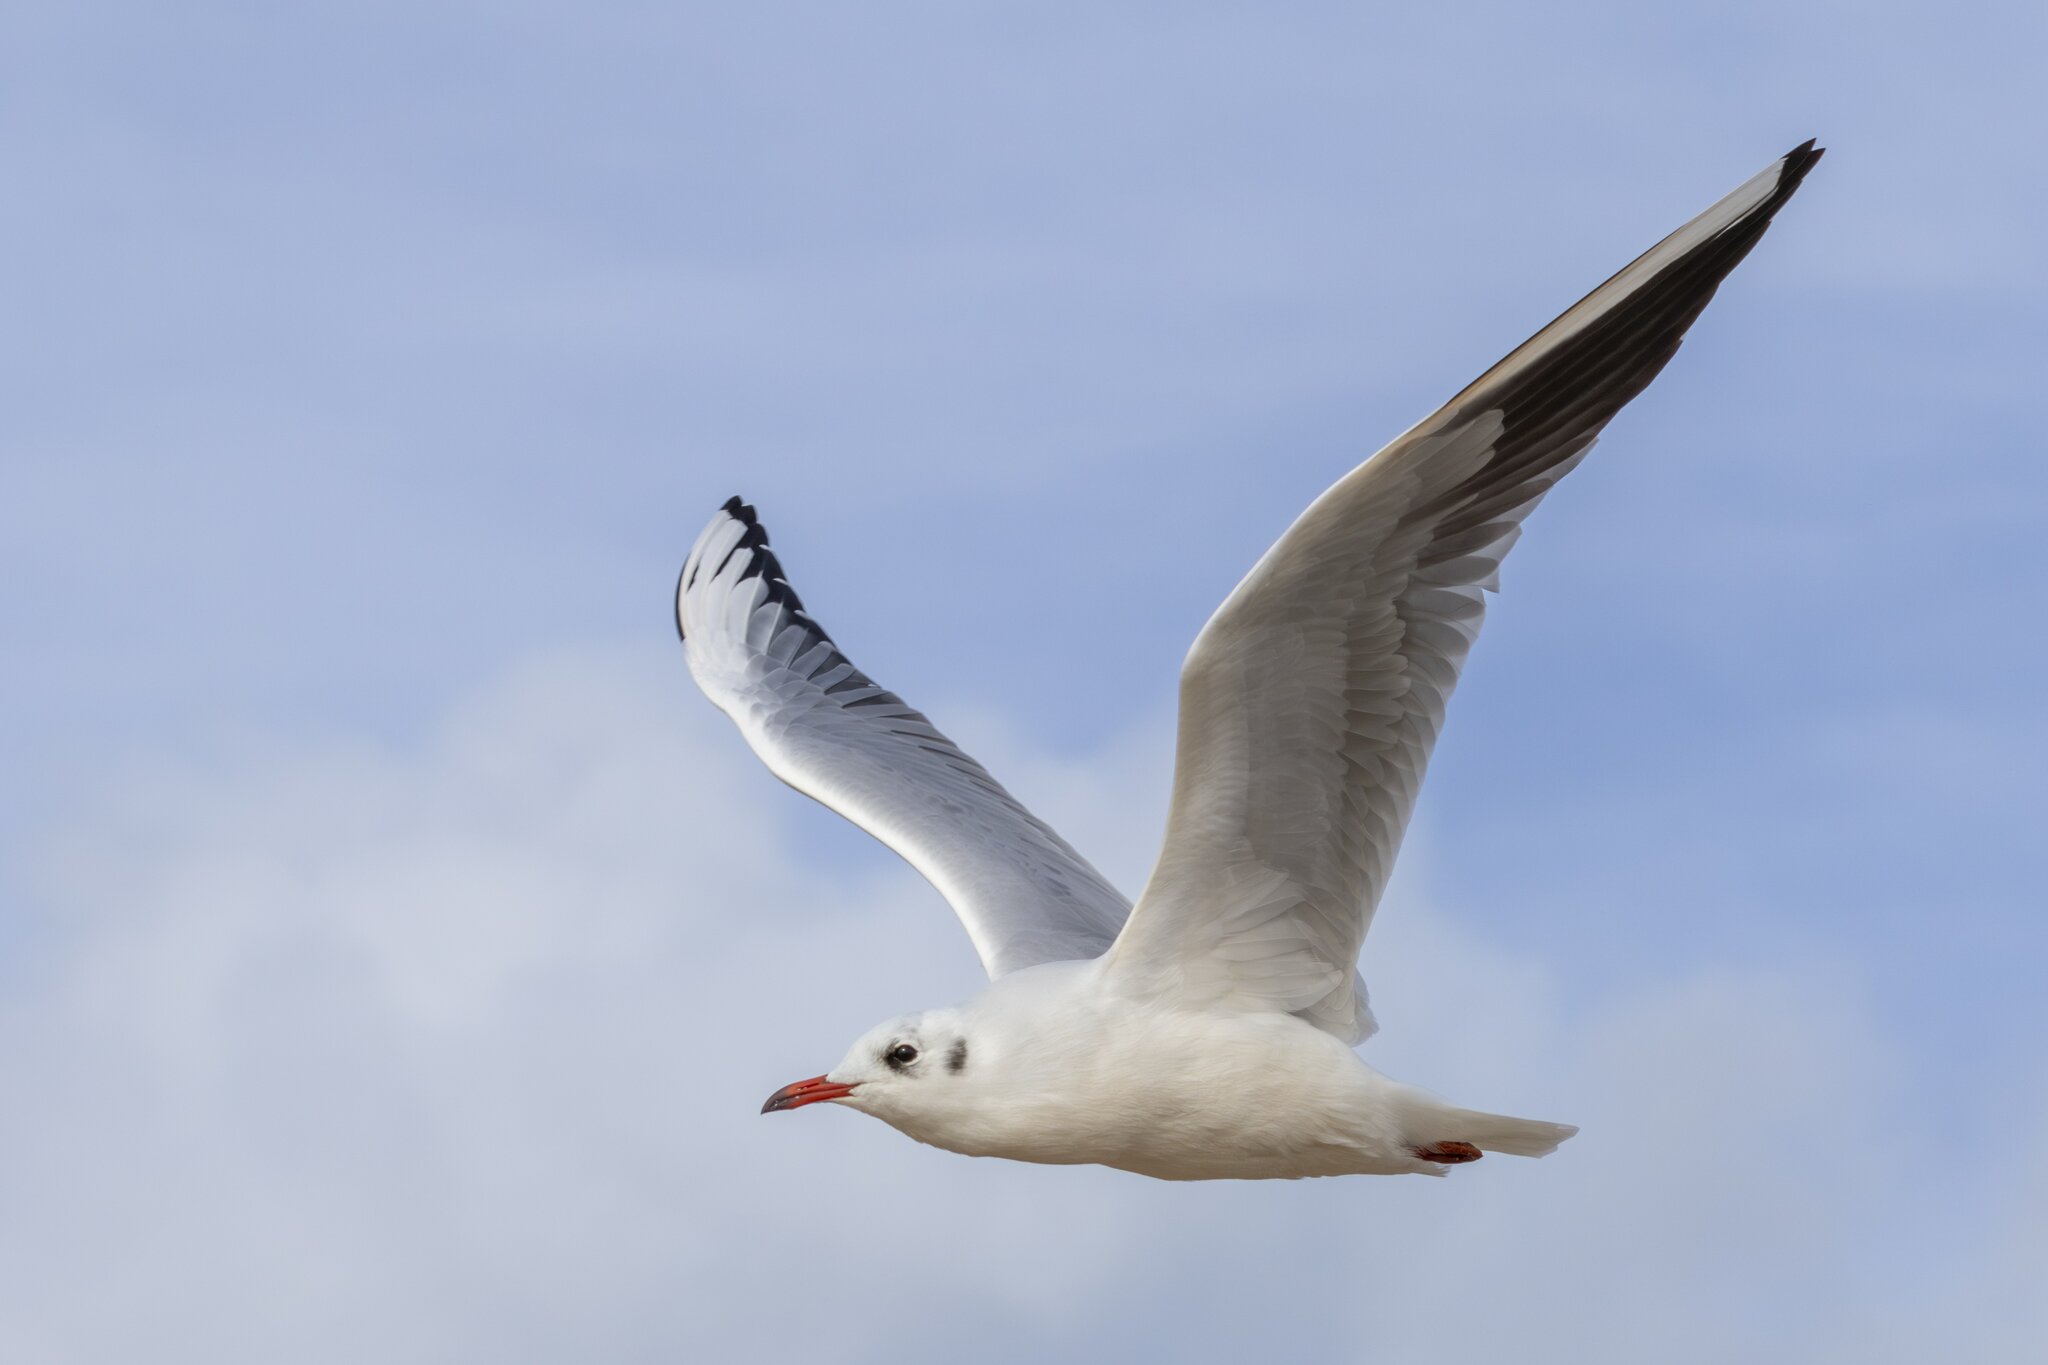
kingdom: Animalia
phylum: Chordata
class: Aves
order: Charadriiformes
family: Laridae
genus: Chroicocephalus
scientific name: Chroicocephalus ridibundus
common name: Black-headed gull
